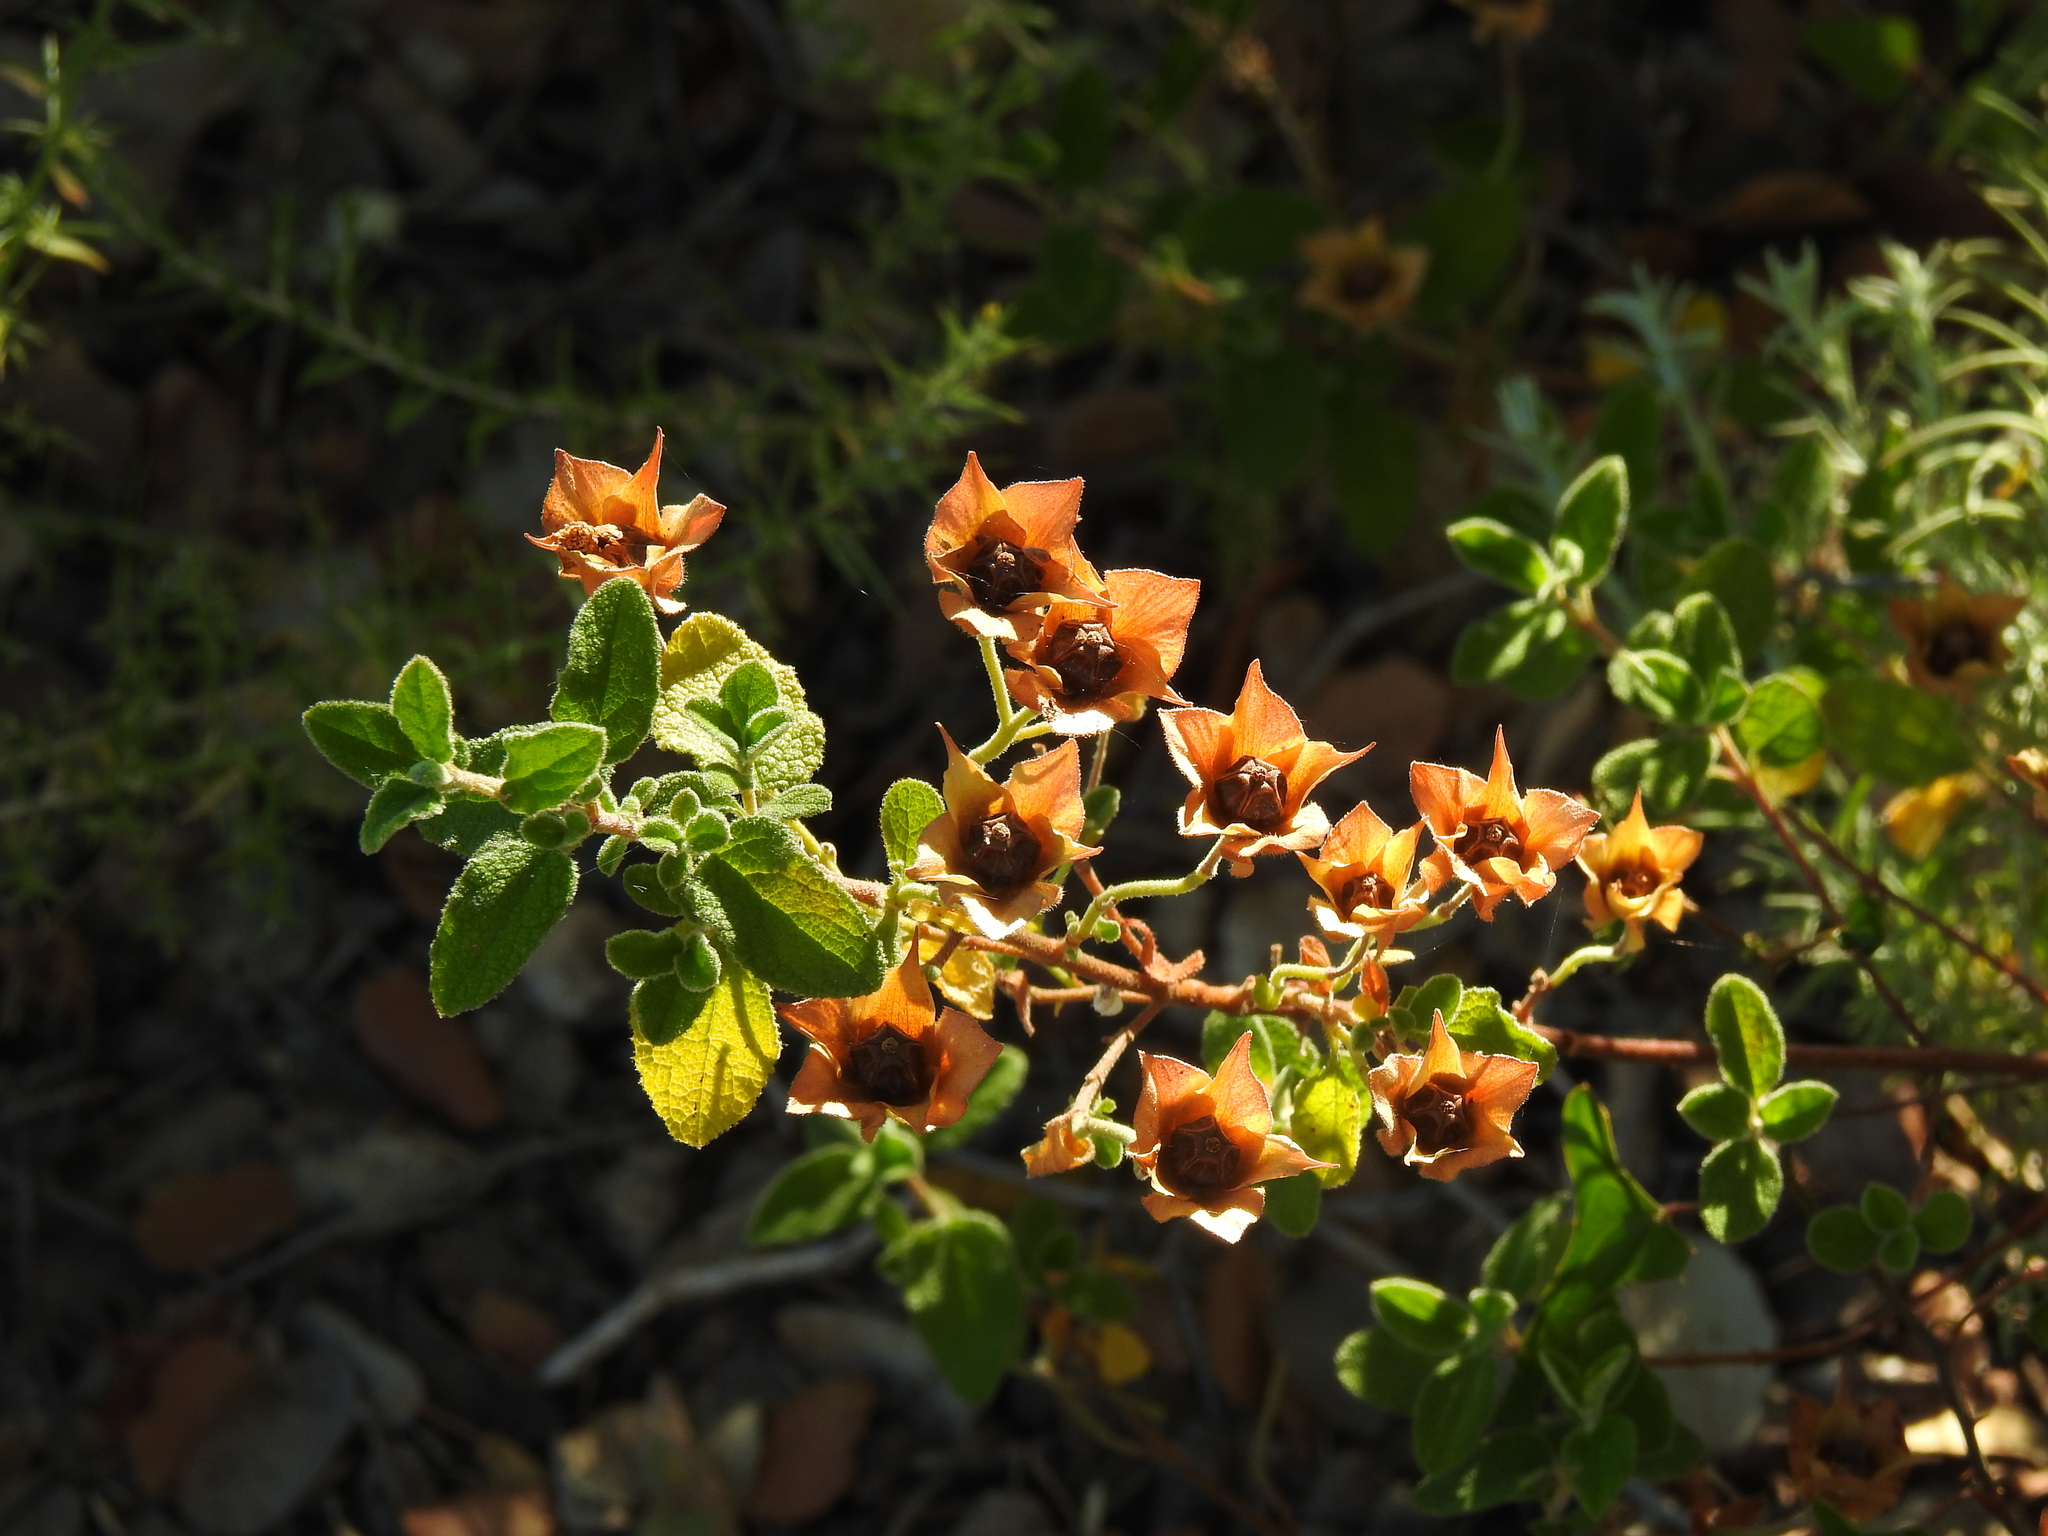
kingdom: Plantae
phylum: Tracheophyta
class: Magnoliopsida
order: Malvales
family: Cistaceae
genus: Cistus
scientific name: Cistus salviifolius
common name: Salvia cistus
